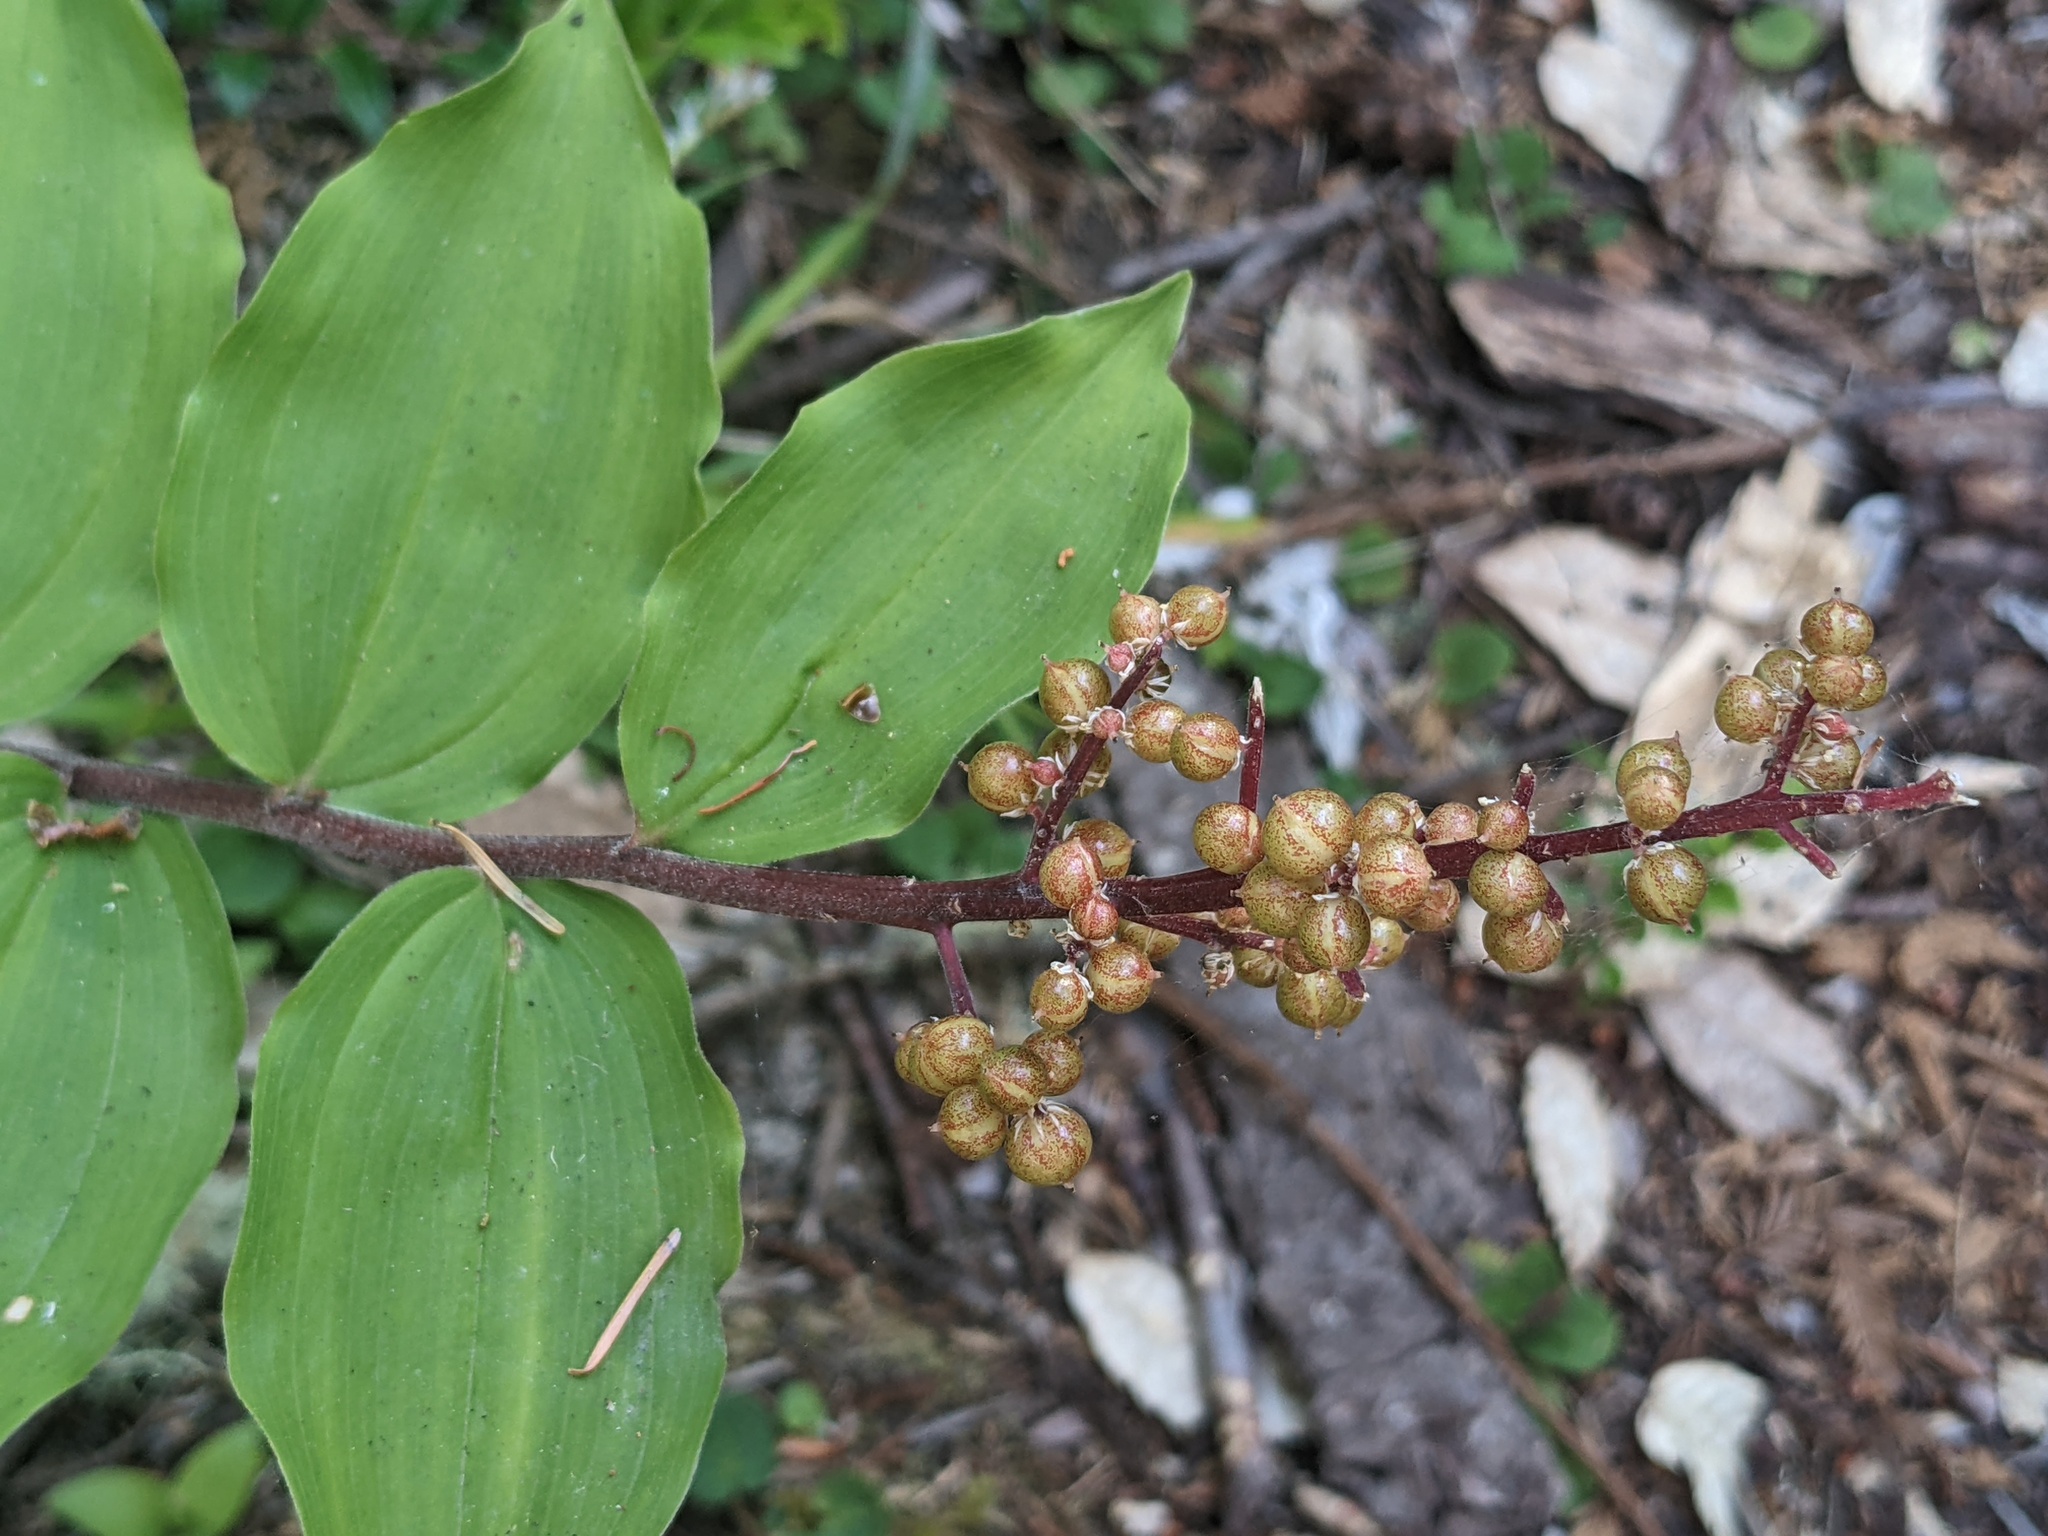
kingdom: Plantae
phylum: Tracheophyta
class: Liliopsida
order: Asparagales
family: Asparagaceae
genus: Maianthemum
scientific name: Maianthemum racemosum
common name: False spikenard
